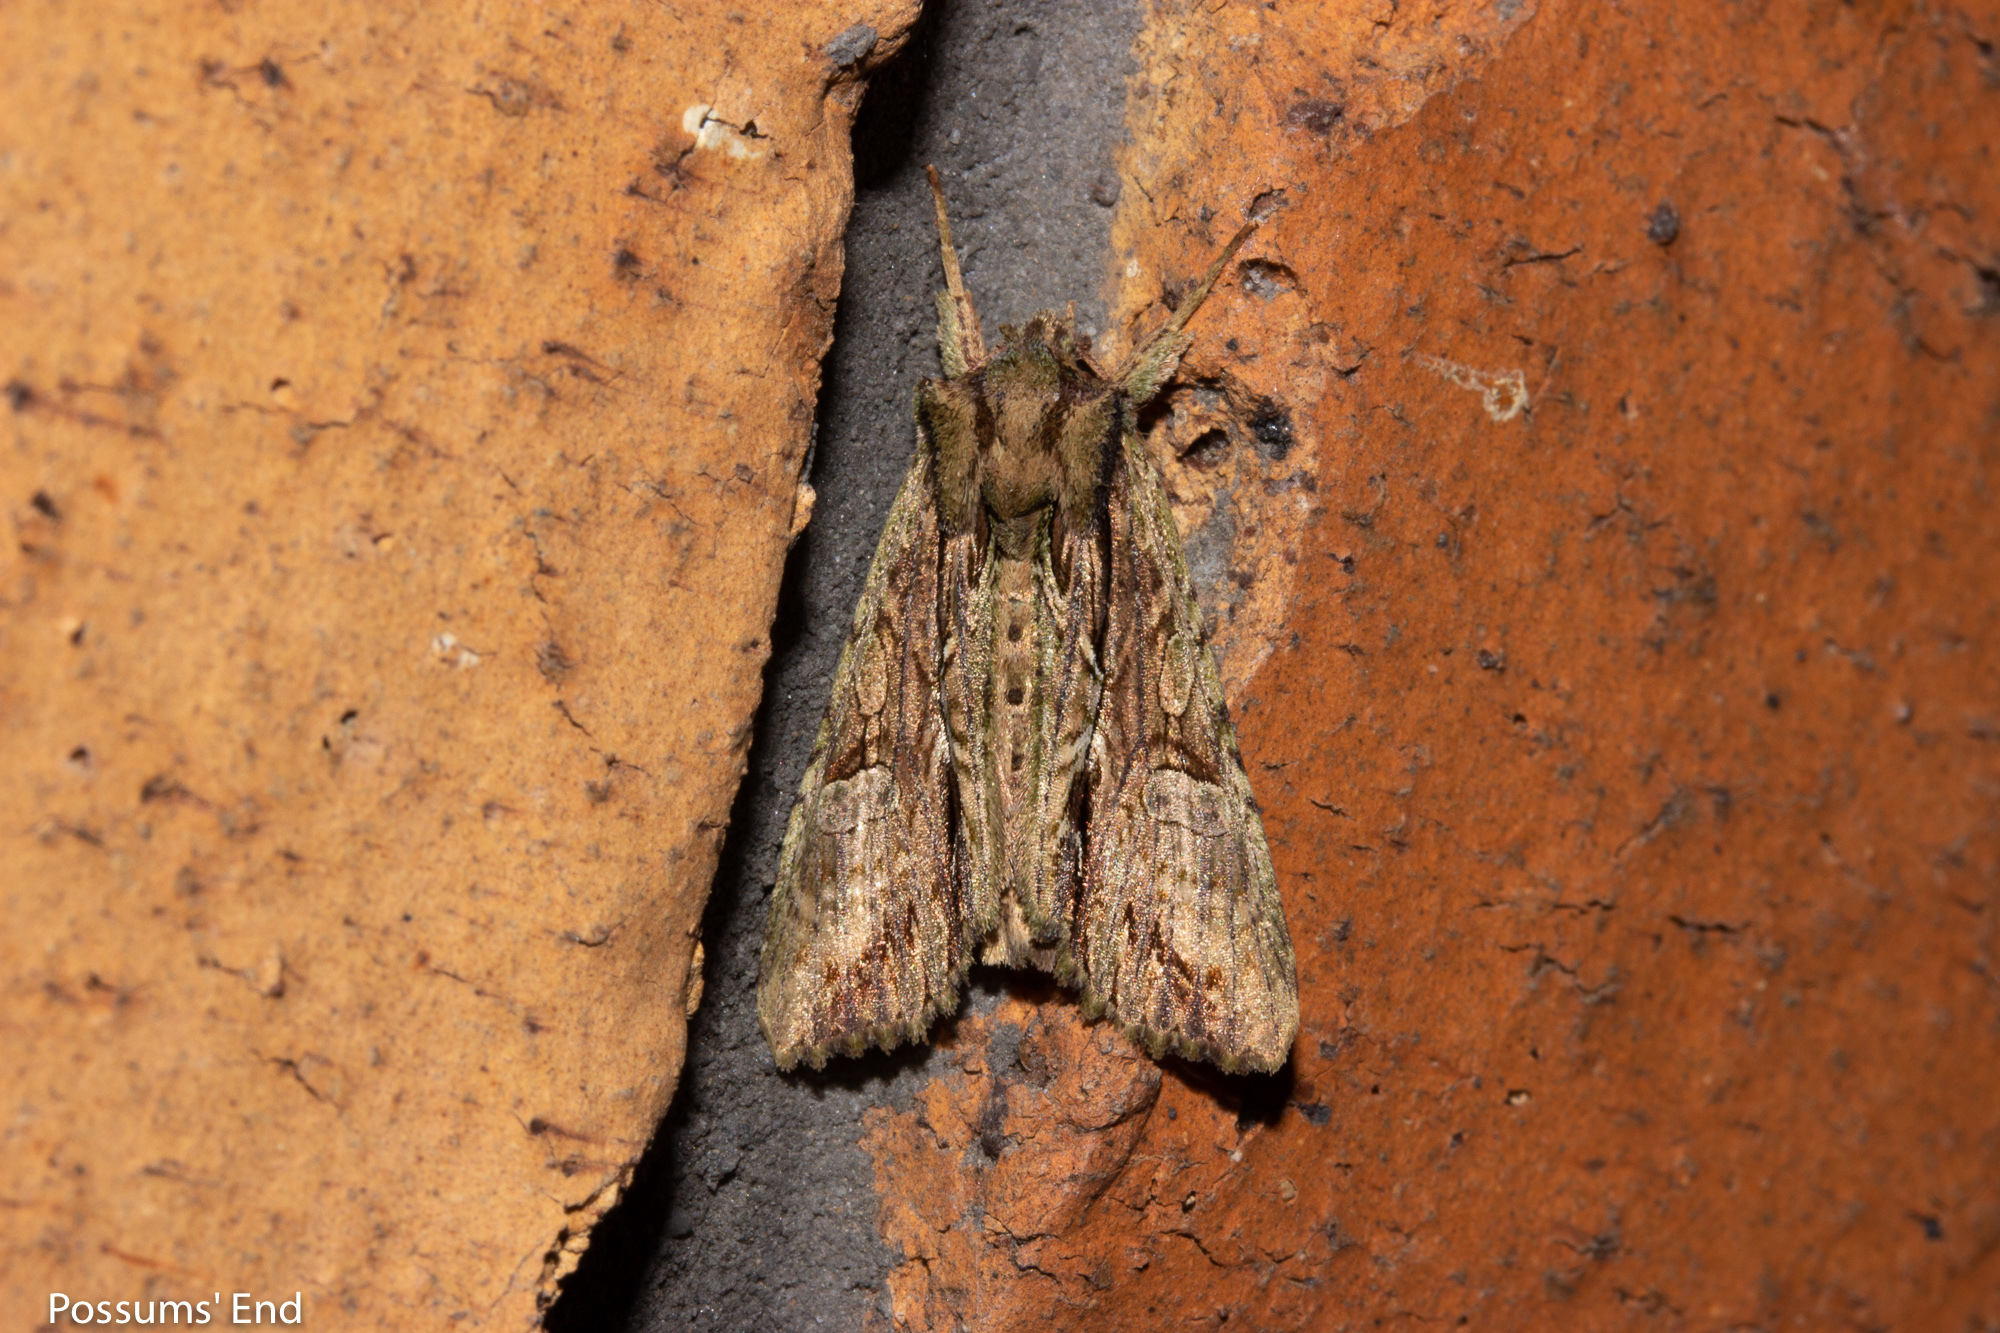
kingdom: Animalia
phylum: Arthropoda
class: Insecta
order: Lepidoptera
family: Noctuidae
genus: Meterana
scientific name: Meterana decorata
